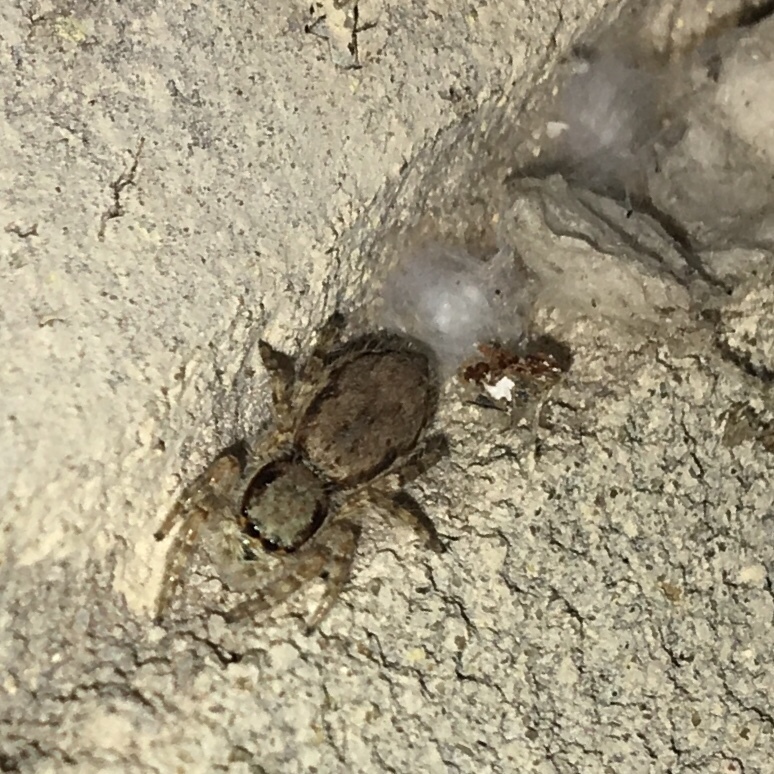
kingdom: Animalia
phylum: Arthropoda
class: Arachnida
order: Araneae
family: Salticidae
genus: Menemerus
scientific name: Menemerus bivittatus
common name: Gray wall jumper
